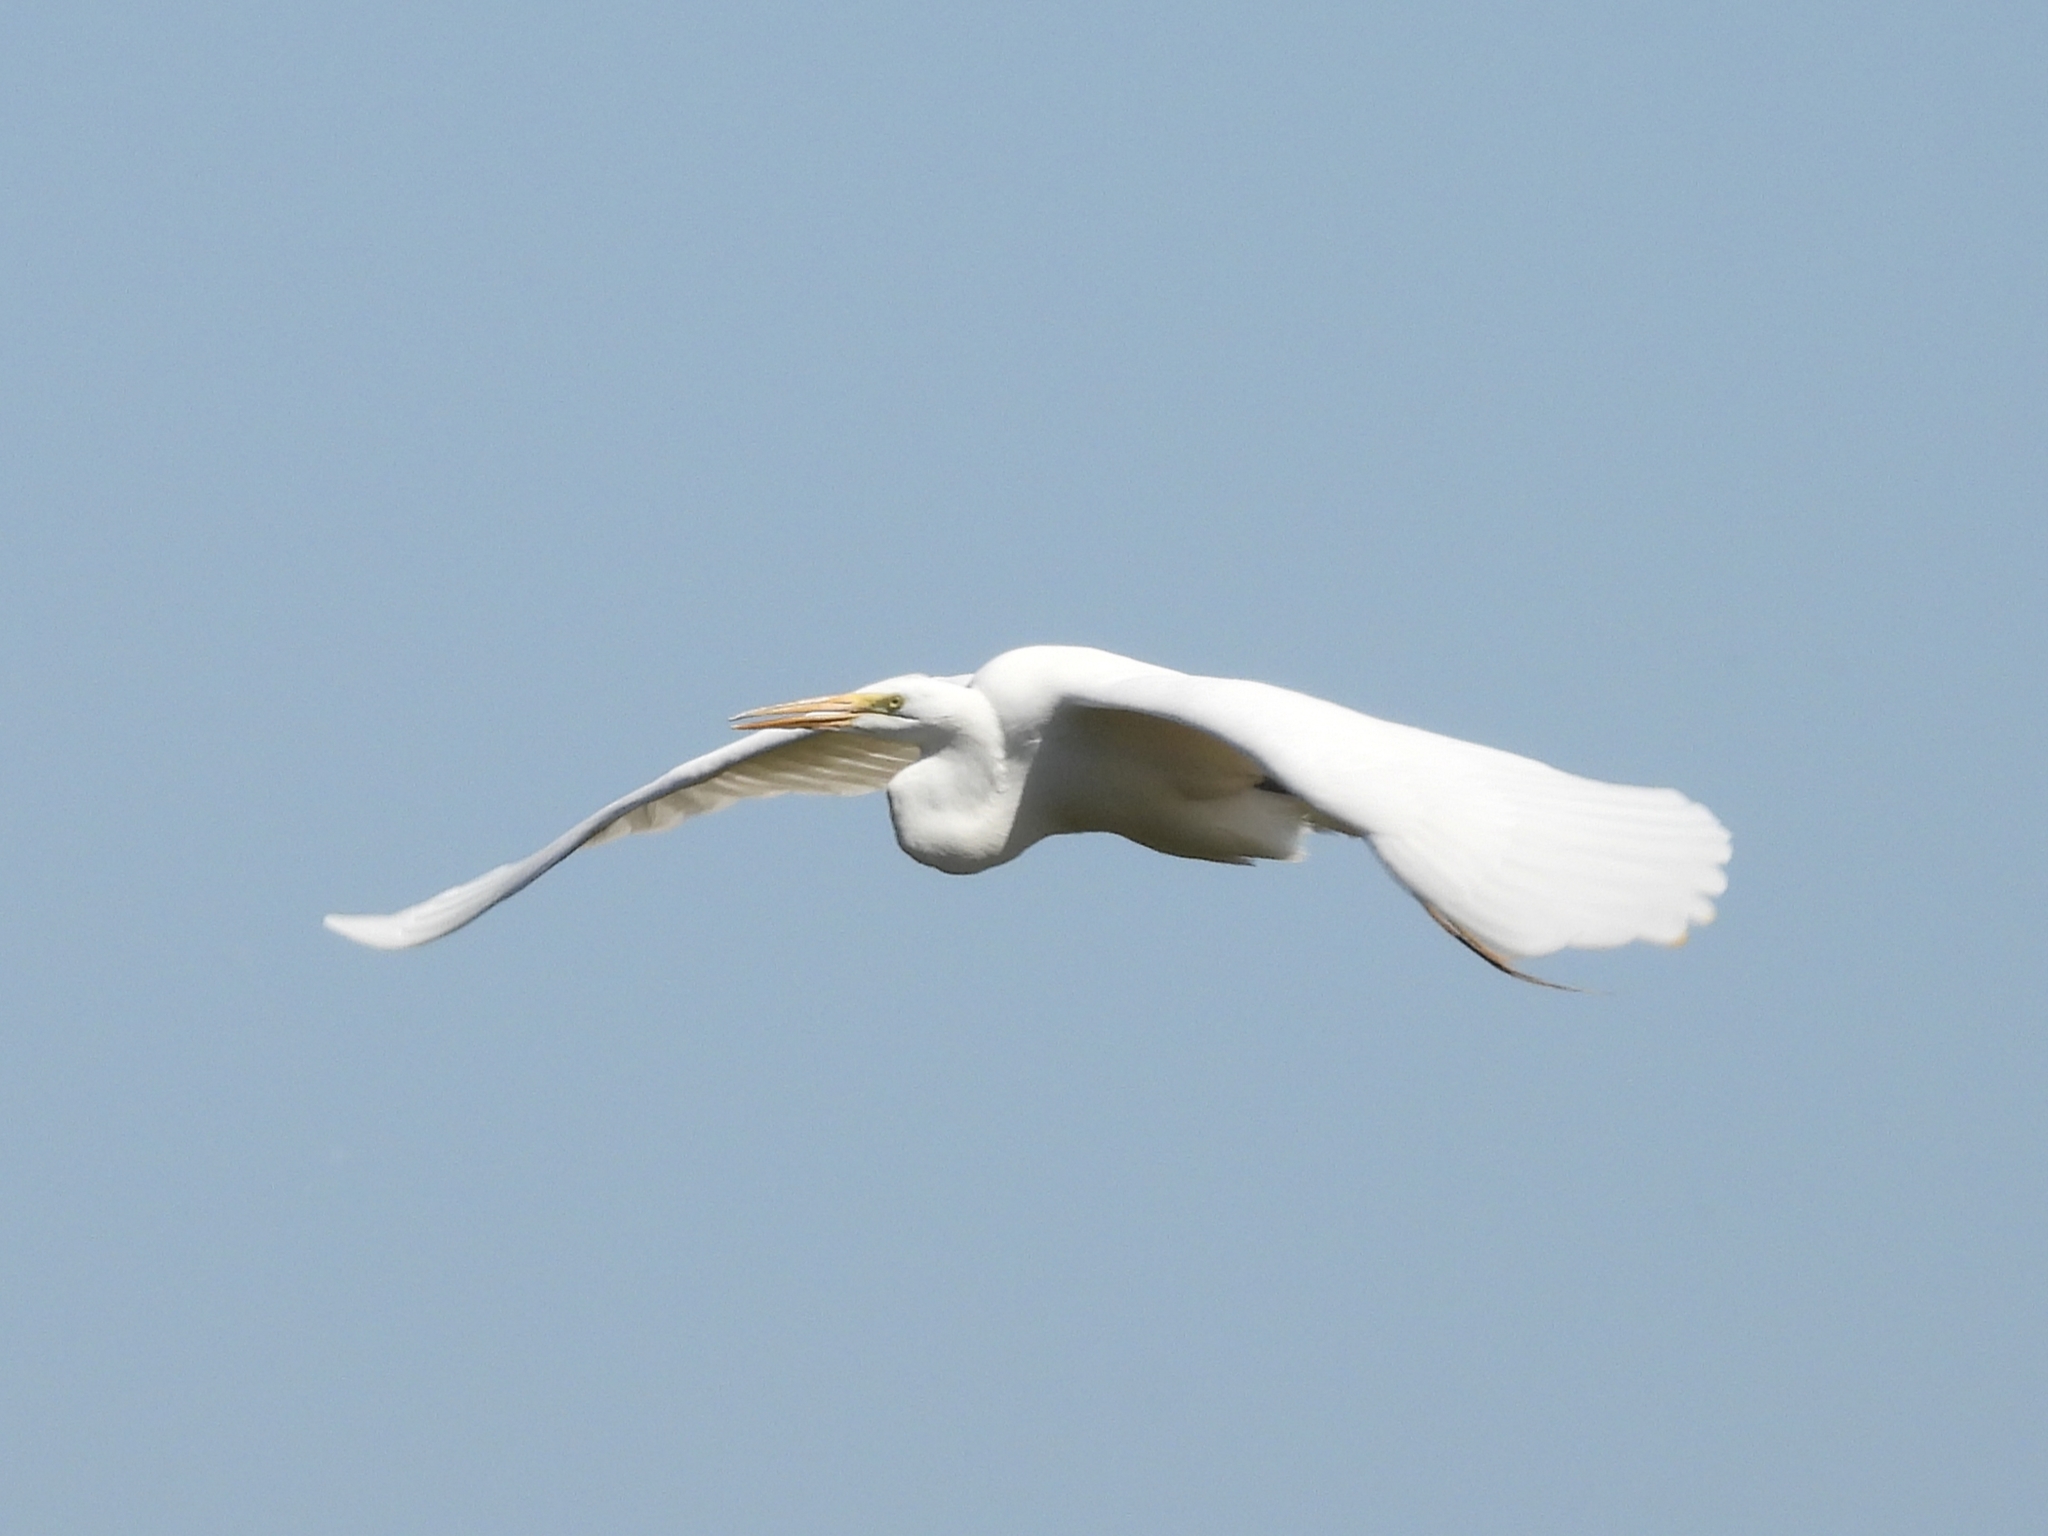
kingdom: Animalia
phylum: Chordata
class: Aves
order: Pelecaniformes
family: Ardeidae
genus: Ardea
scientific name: Ardea alba
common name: Great egret
